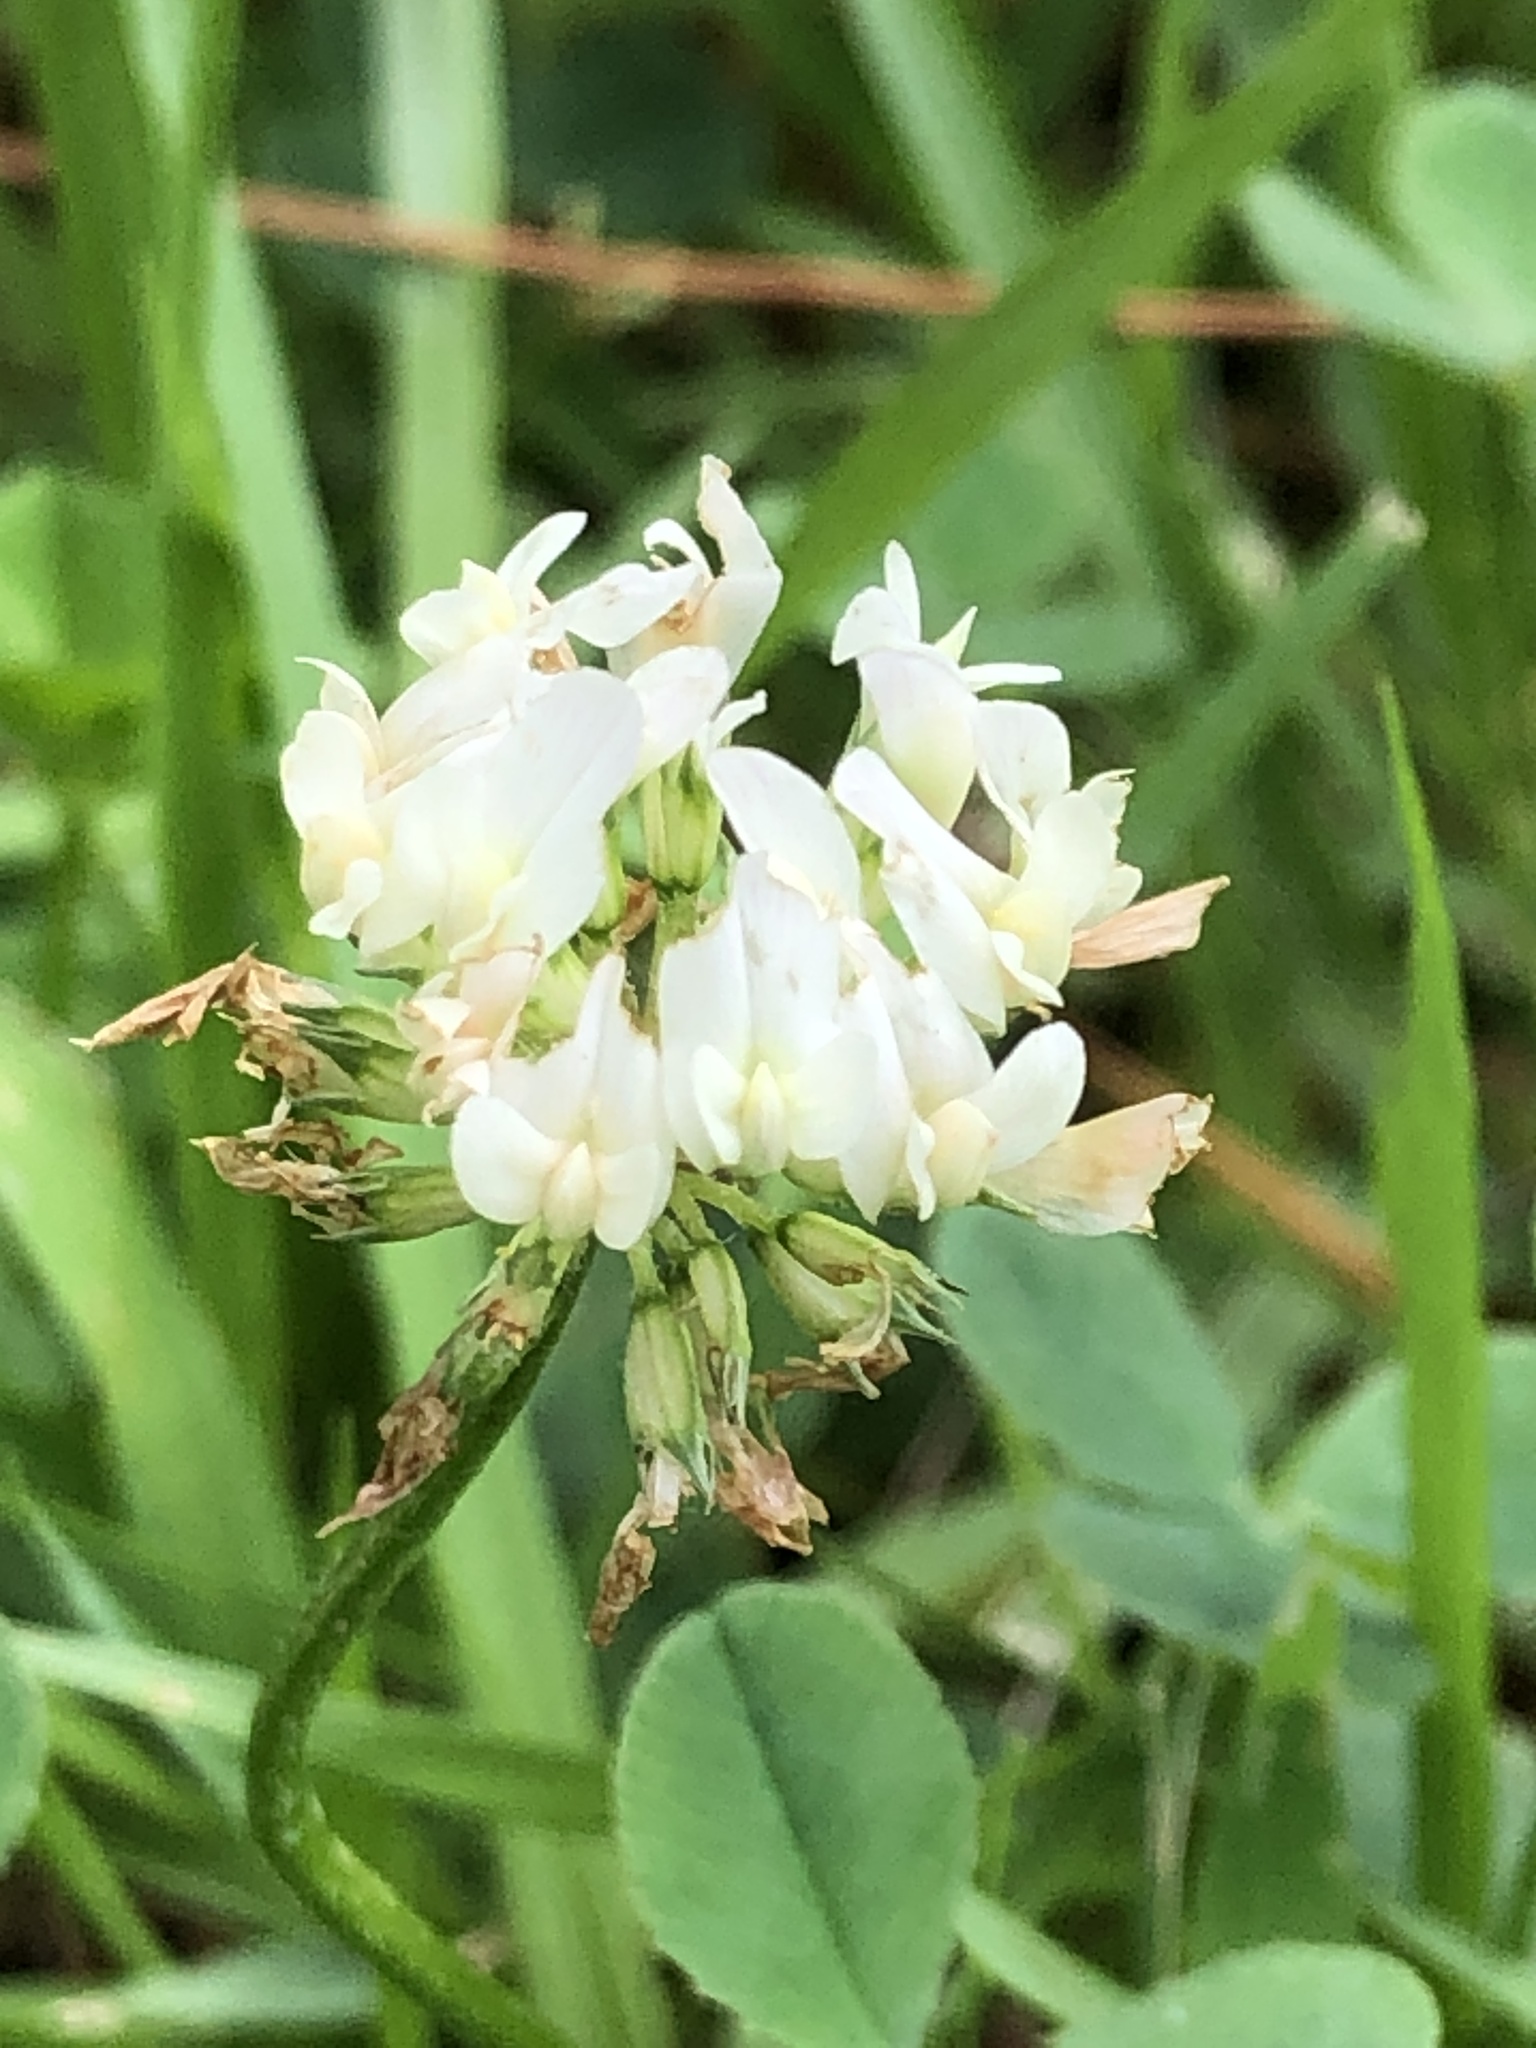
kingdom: Plantae
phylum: Tracheophyta
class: Magnoliopsida
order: Fabales
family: Fabaceae
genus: Trifolium
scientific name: Trifolium repens
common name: White clover
